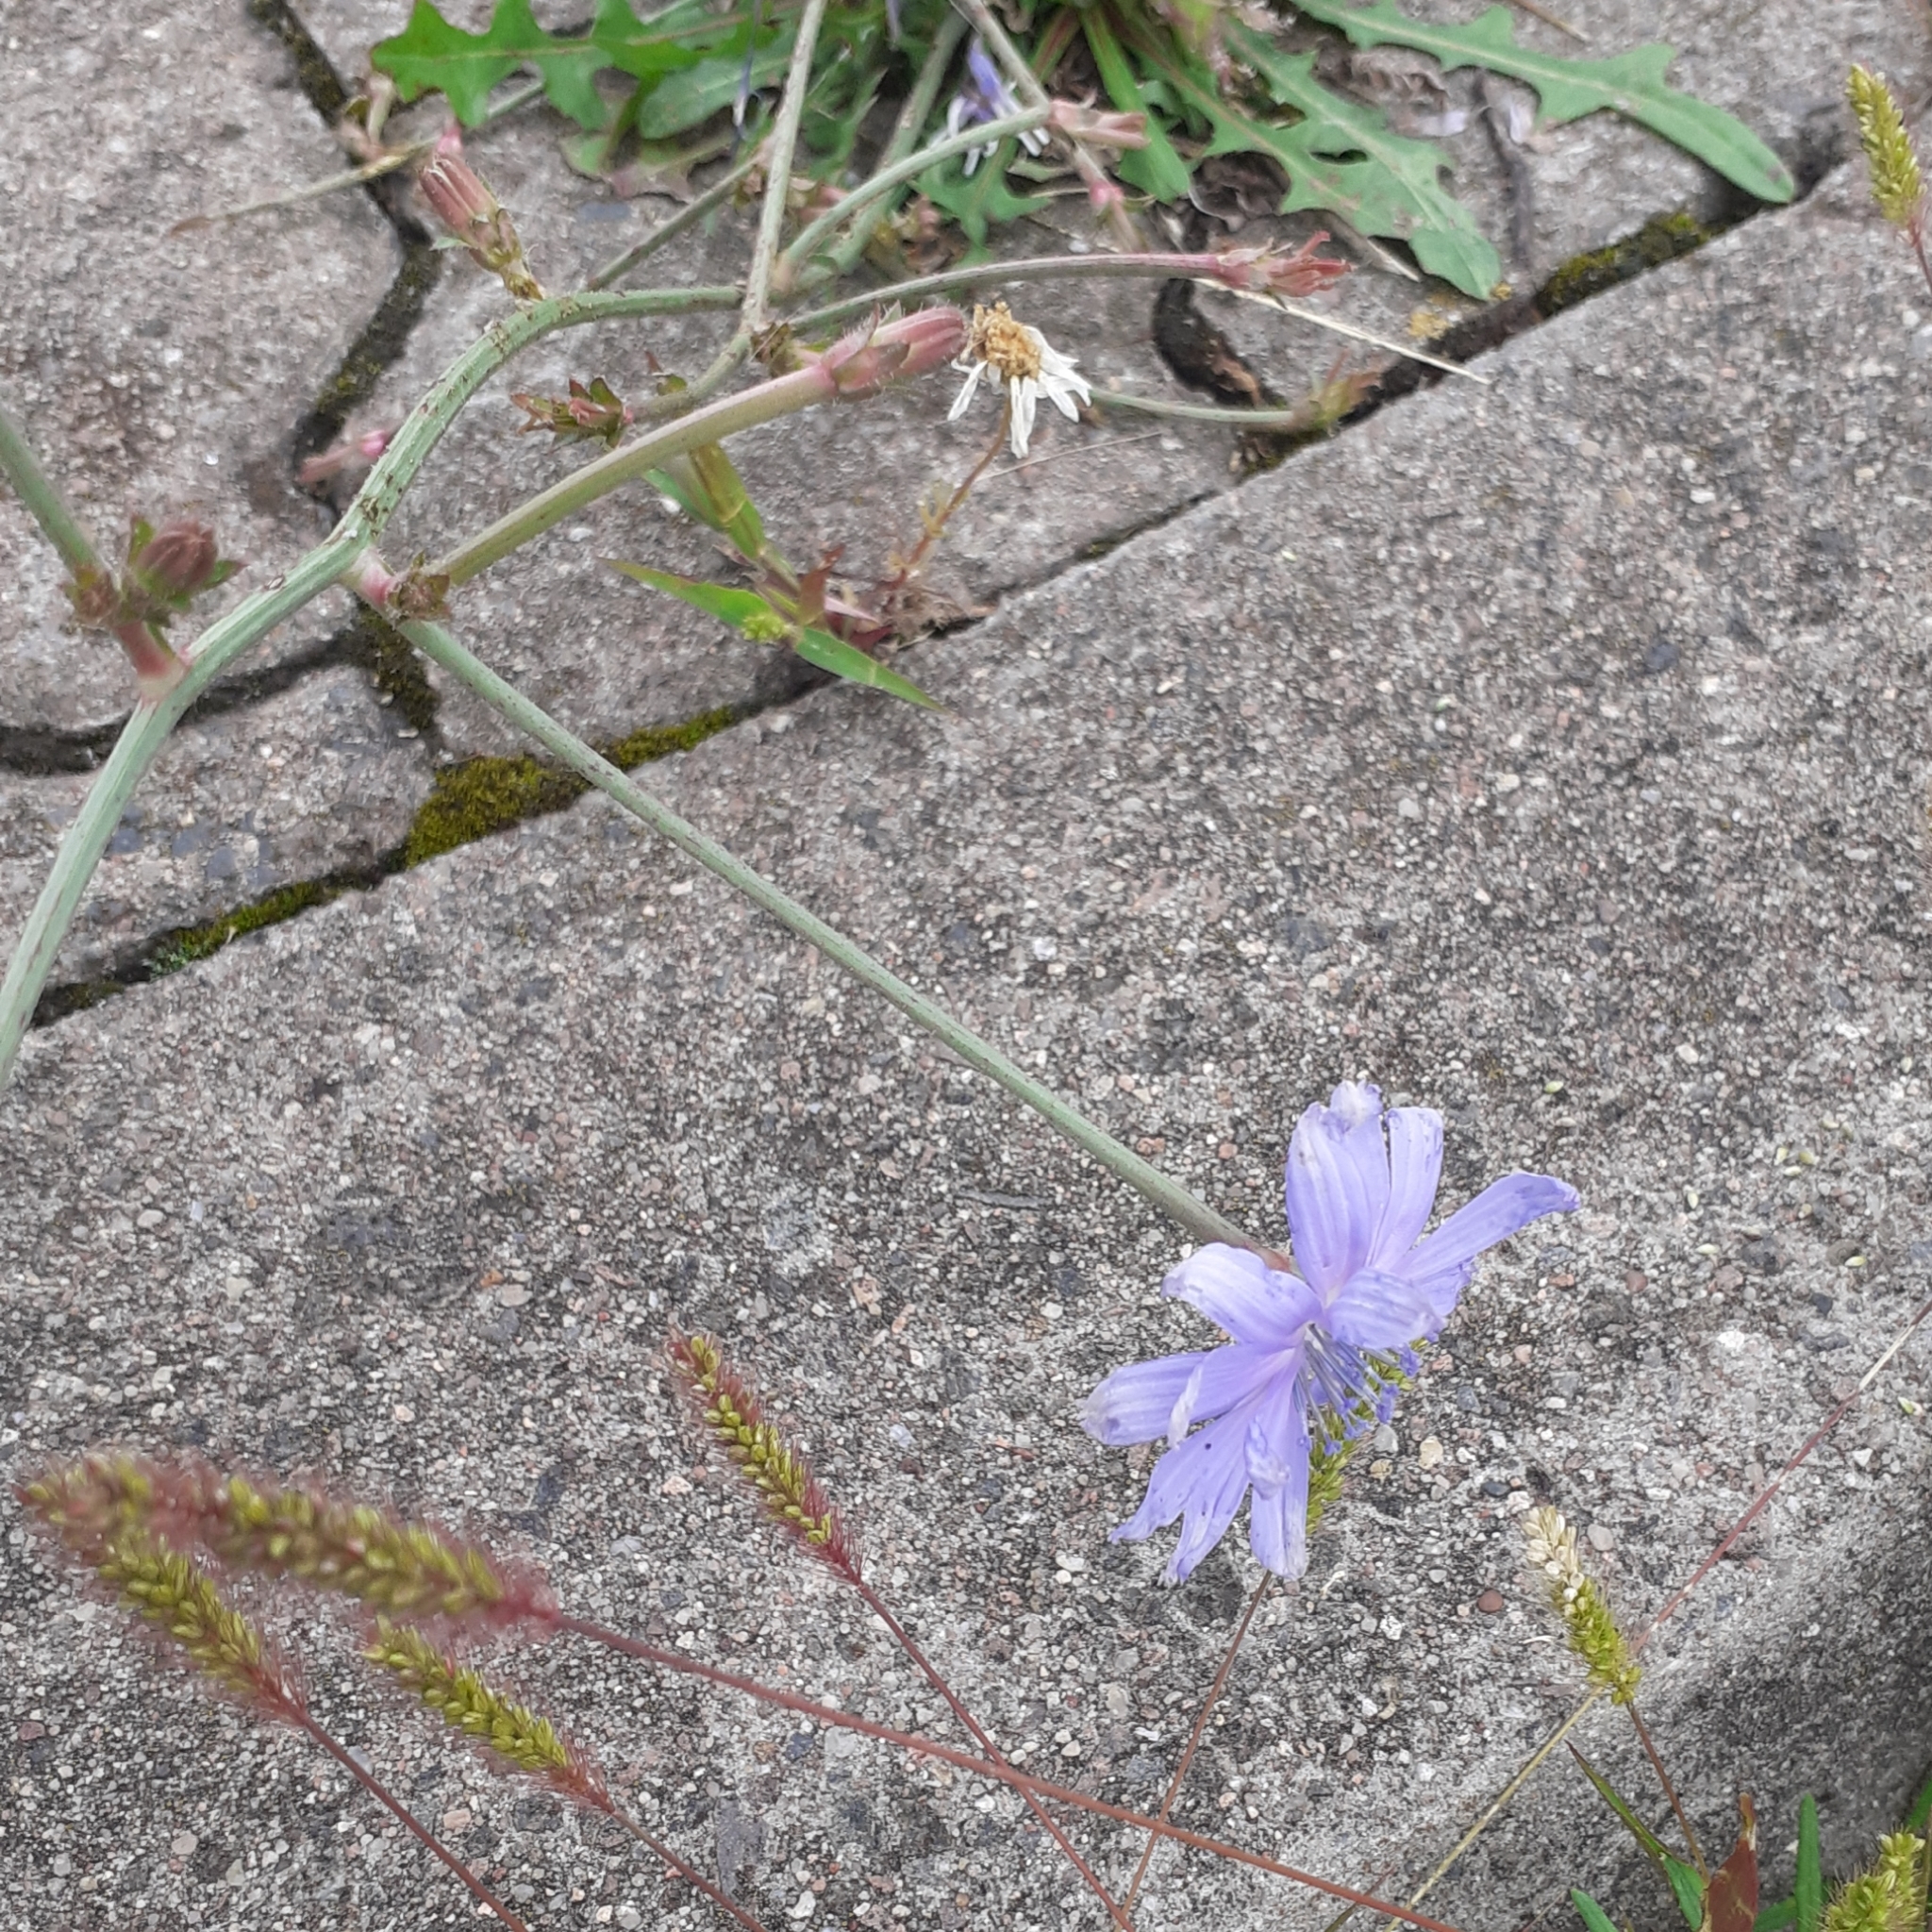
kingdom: Plantae
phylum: Tracheophyta
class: Magnoliopsida
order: Asterales
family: Asteraceae
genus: Cichorium
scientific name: Cichorium intybus
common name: Chicory
